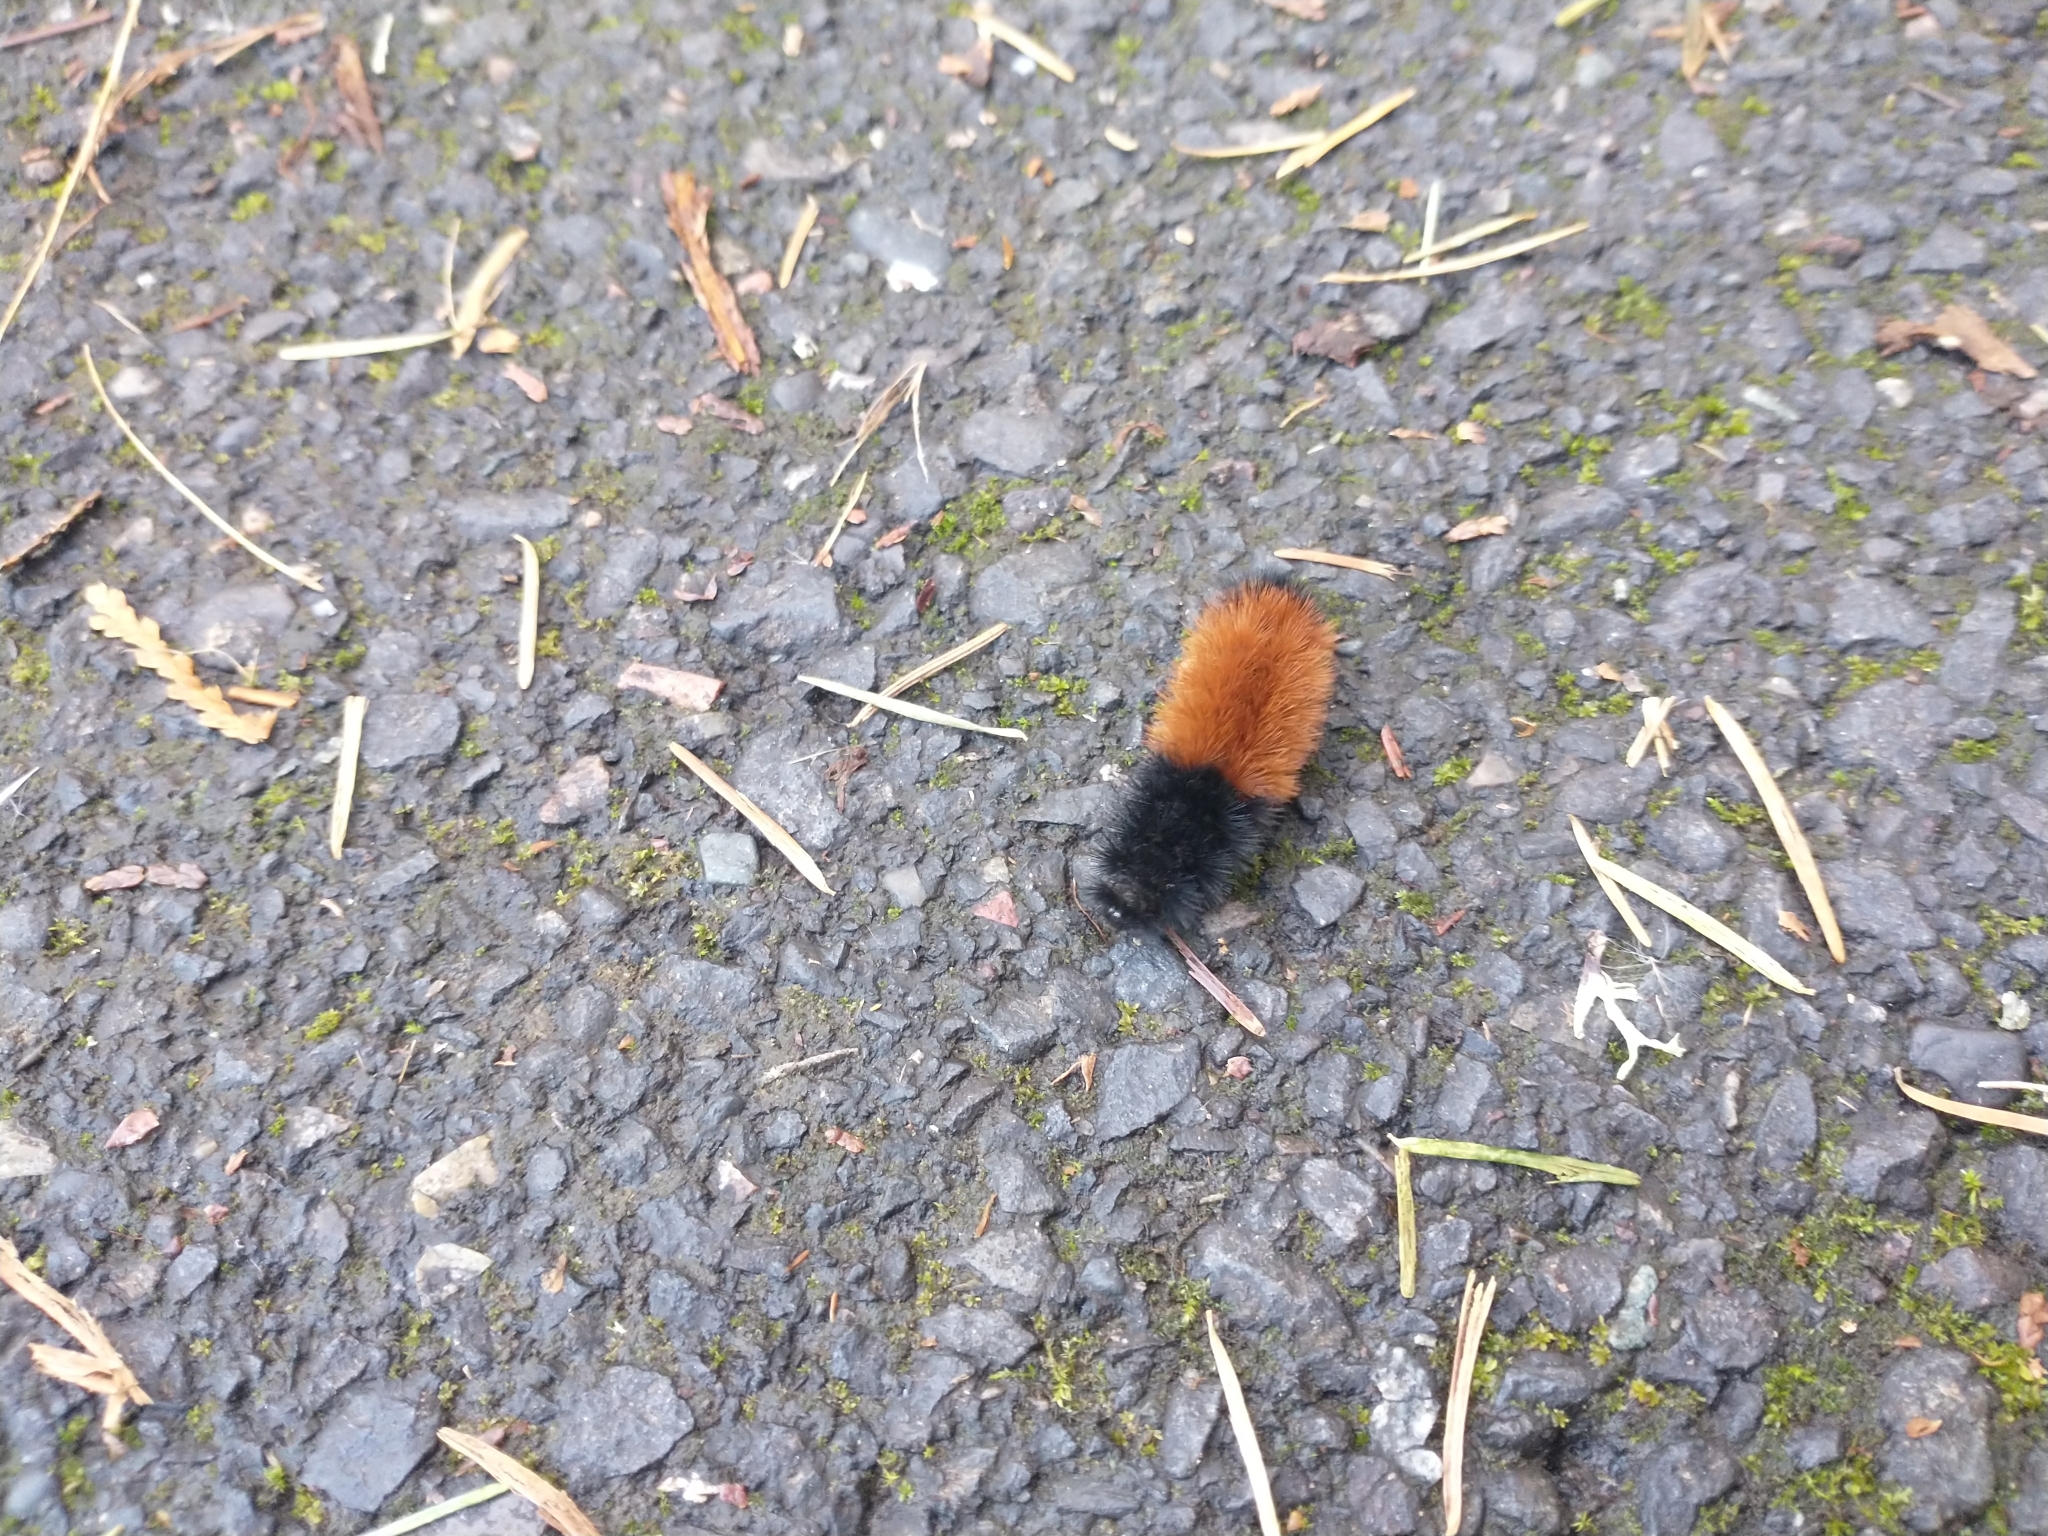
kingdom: Animalia
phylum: Arthropoda
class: Insecta
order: Lepidoptera
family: Erebidae
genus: Pyrrharctia
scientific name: Pyrrharctia isabella
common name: Isabella tiger moth
